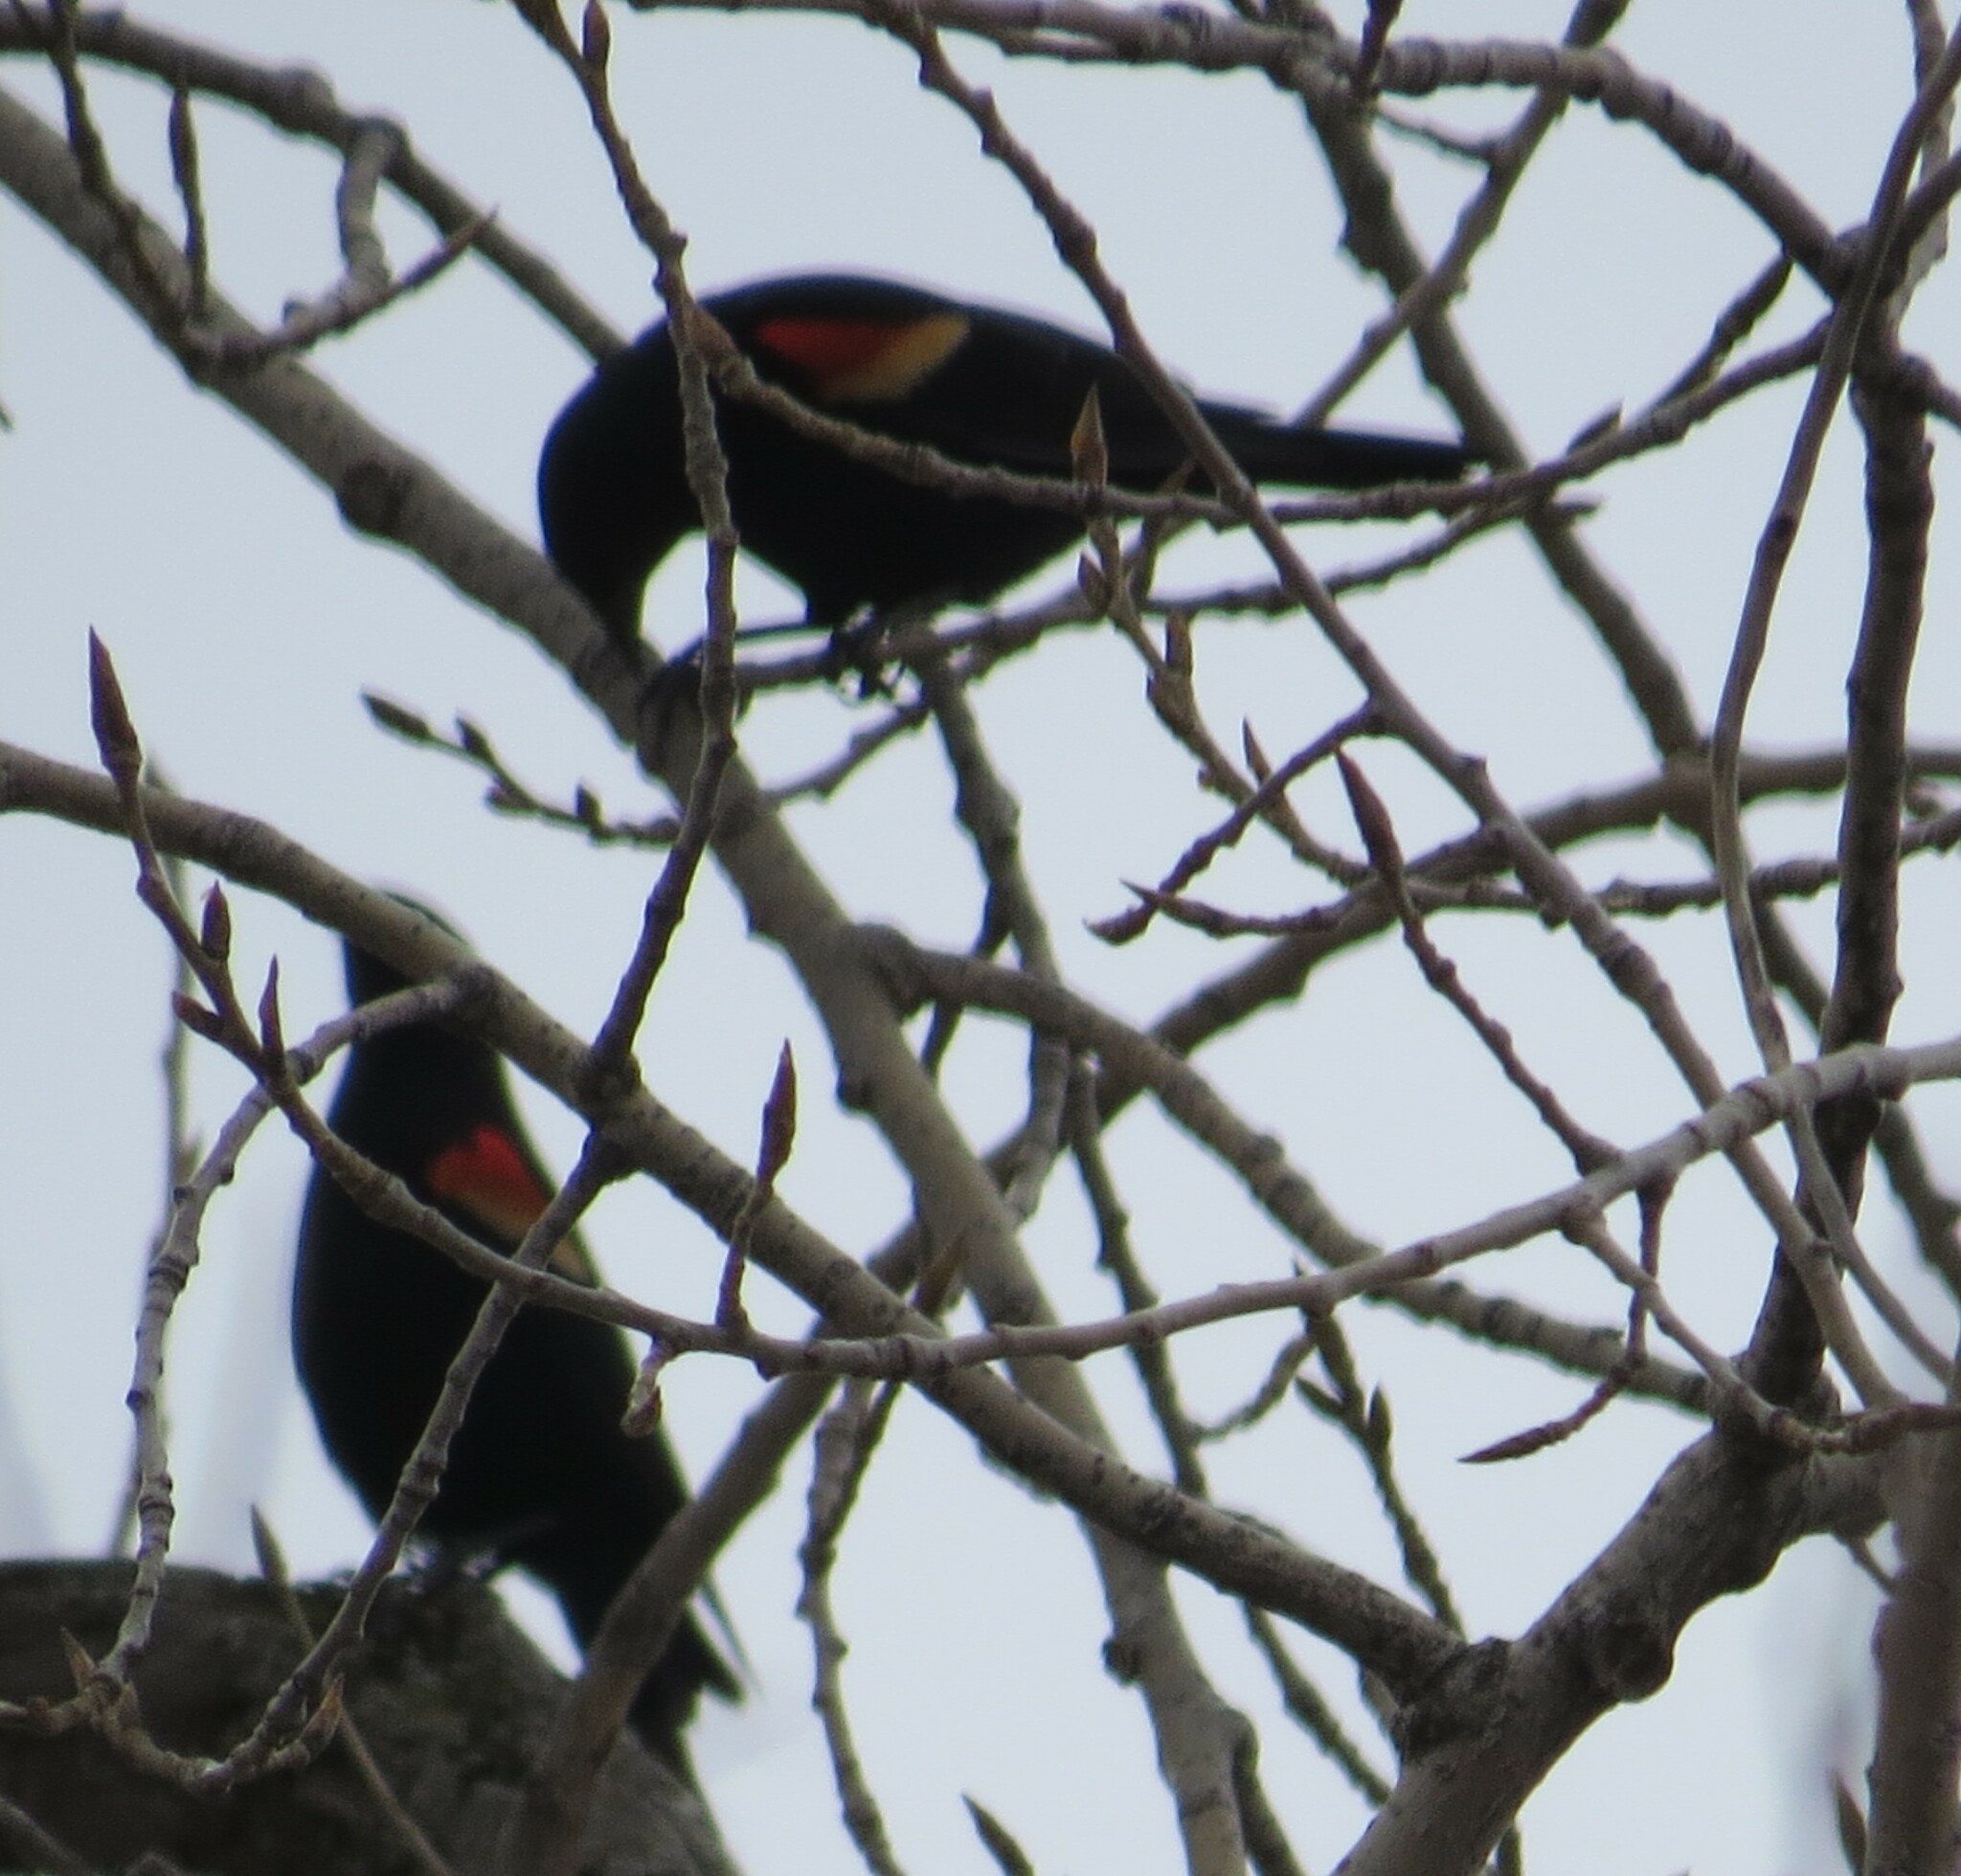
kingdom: Animalia
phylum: Chordata
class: Aves
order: Passeriformes
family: Icteridae
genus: Agelaius
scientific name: Agelaius phoeniceus
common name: Red-winged blackbird
